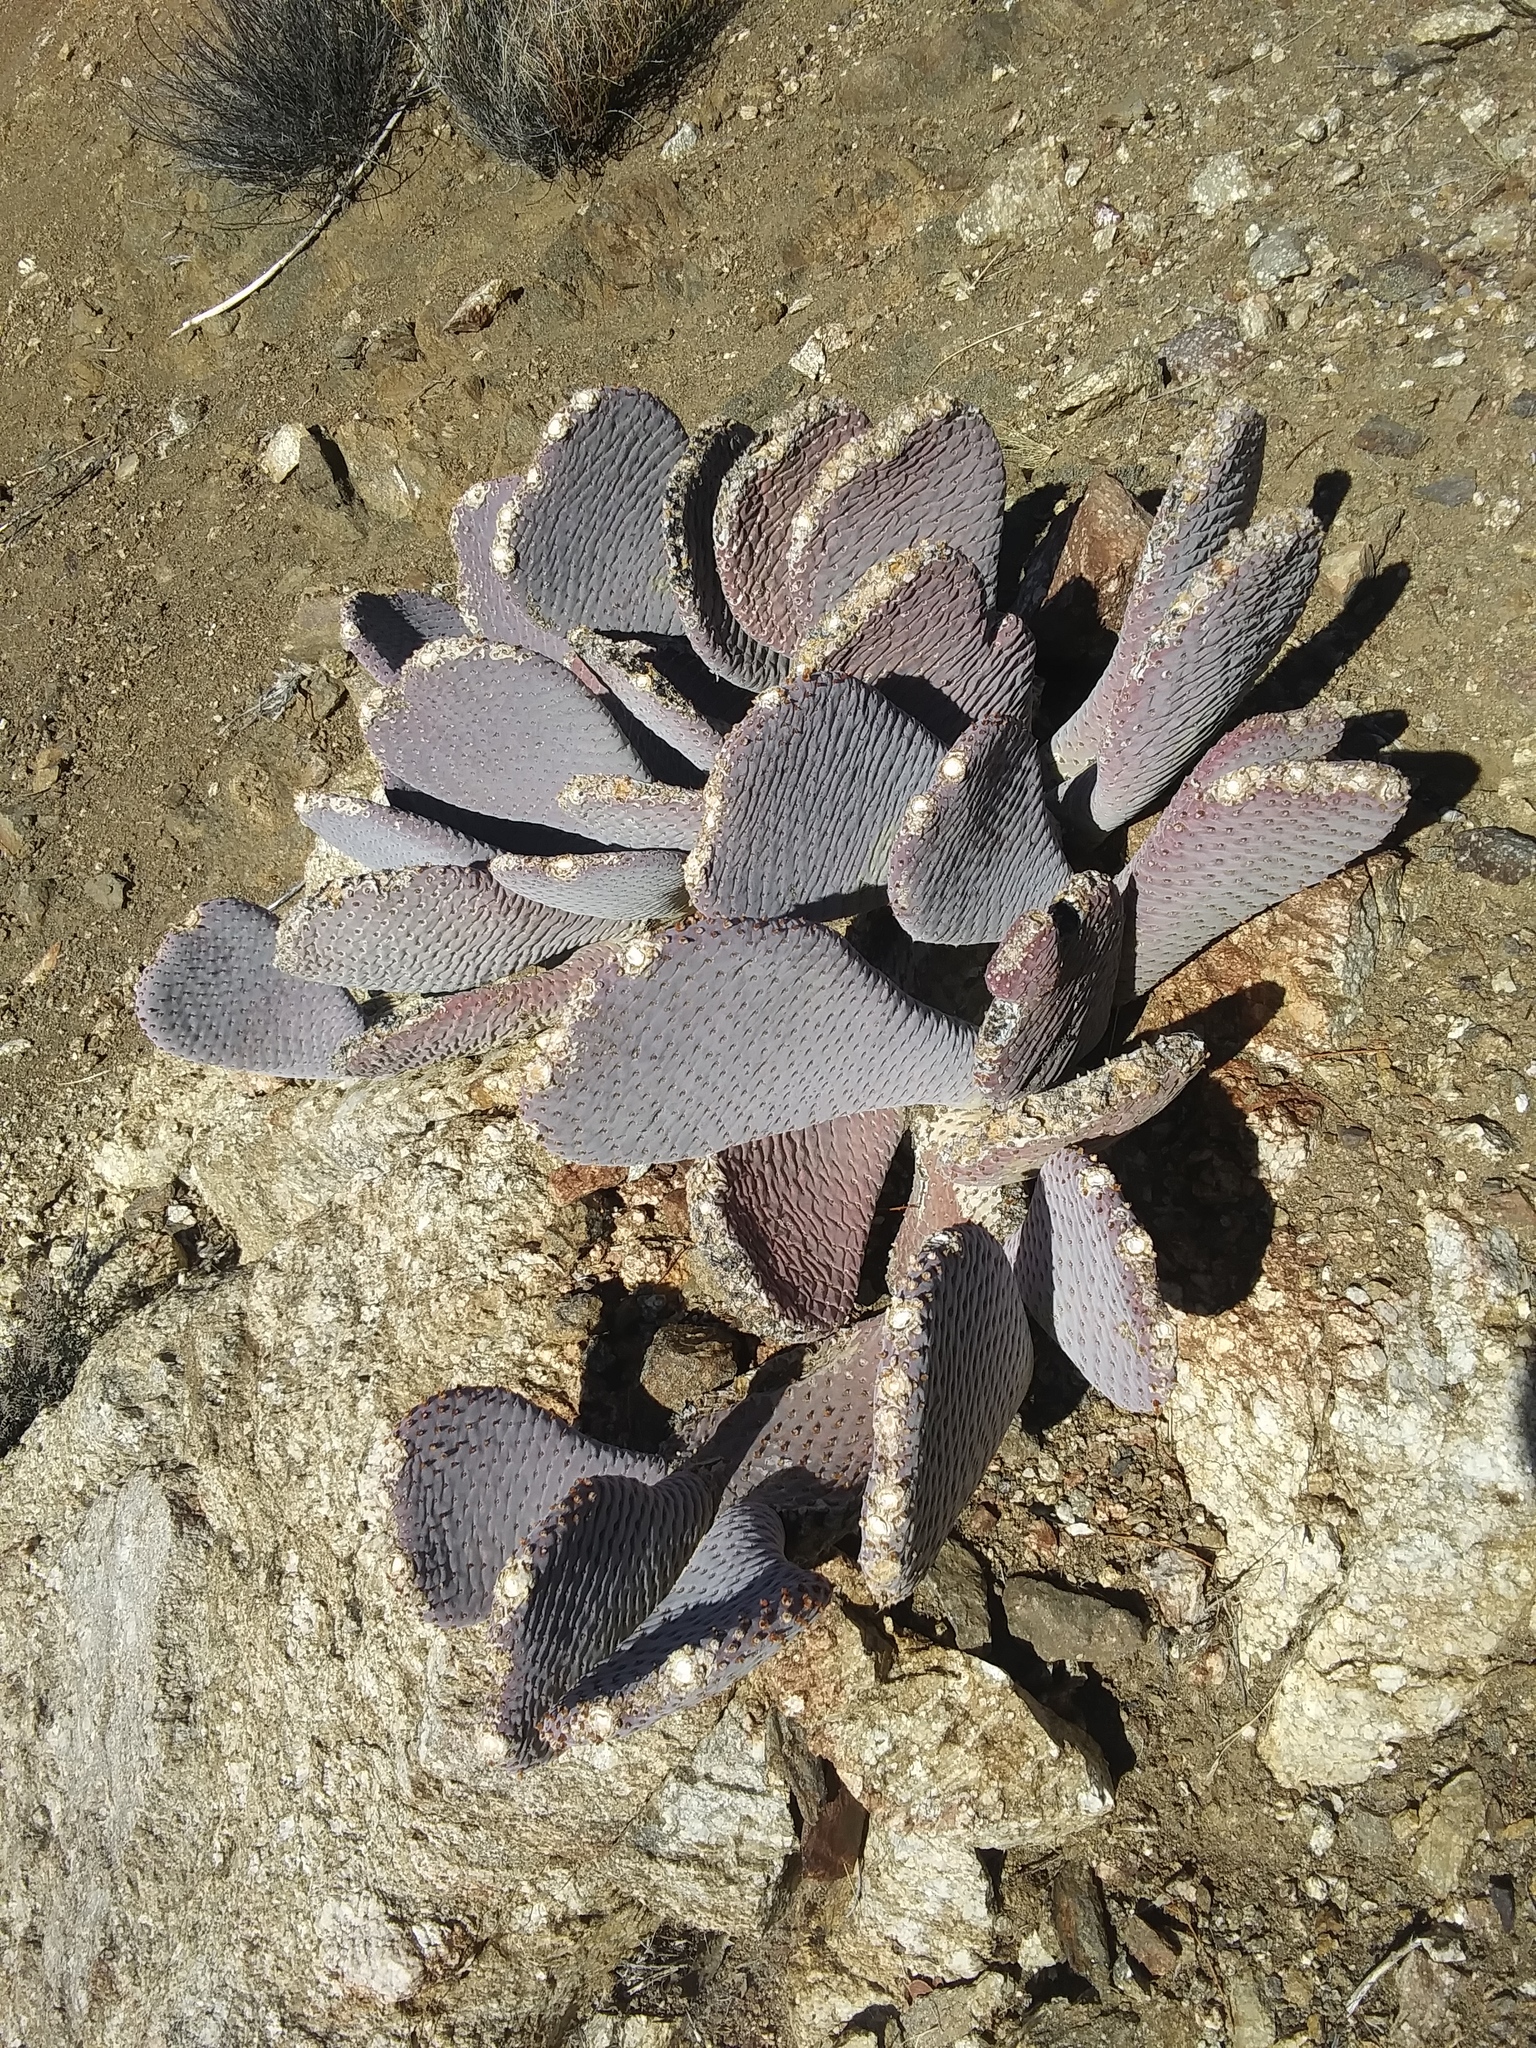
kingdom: Plantae
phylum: Tracheophyta
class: Magnoliopsida
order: Caryophyllales
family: Cactaceae
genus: Opuntia
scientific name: Opuntia basilaris
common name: Beavertail prickly-pear
